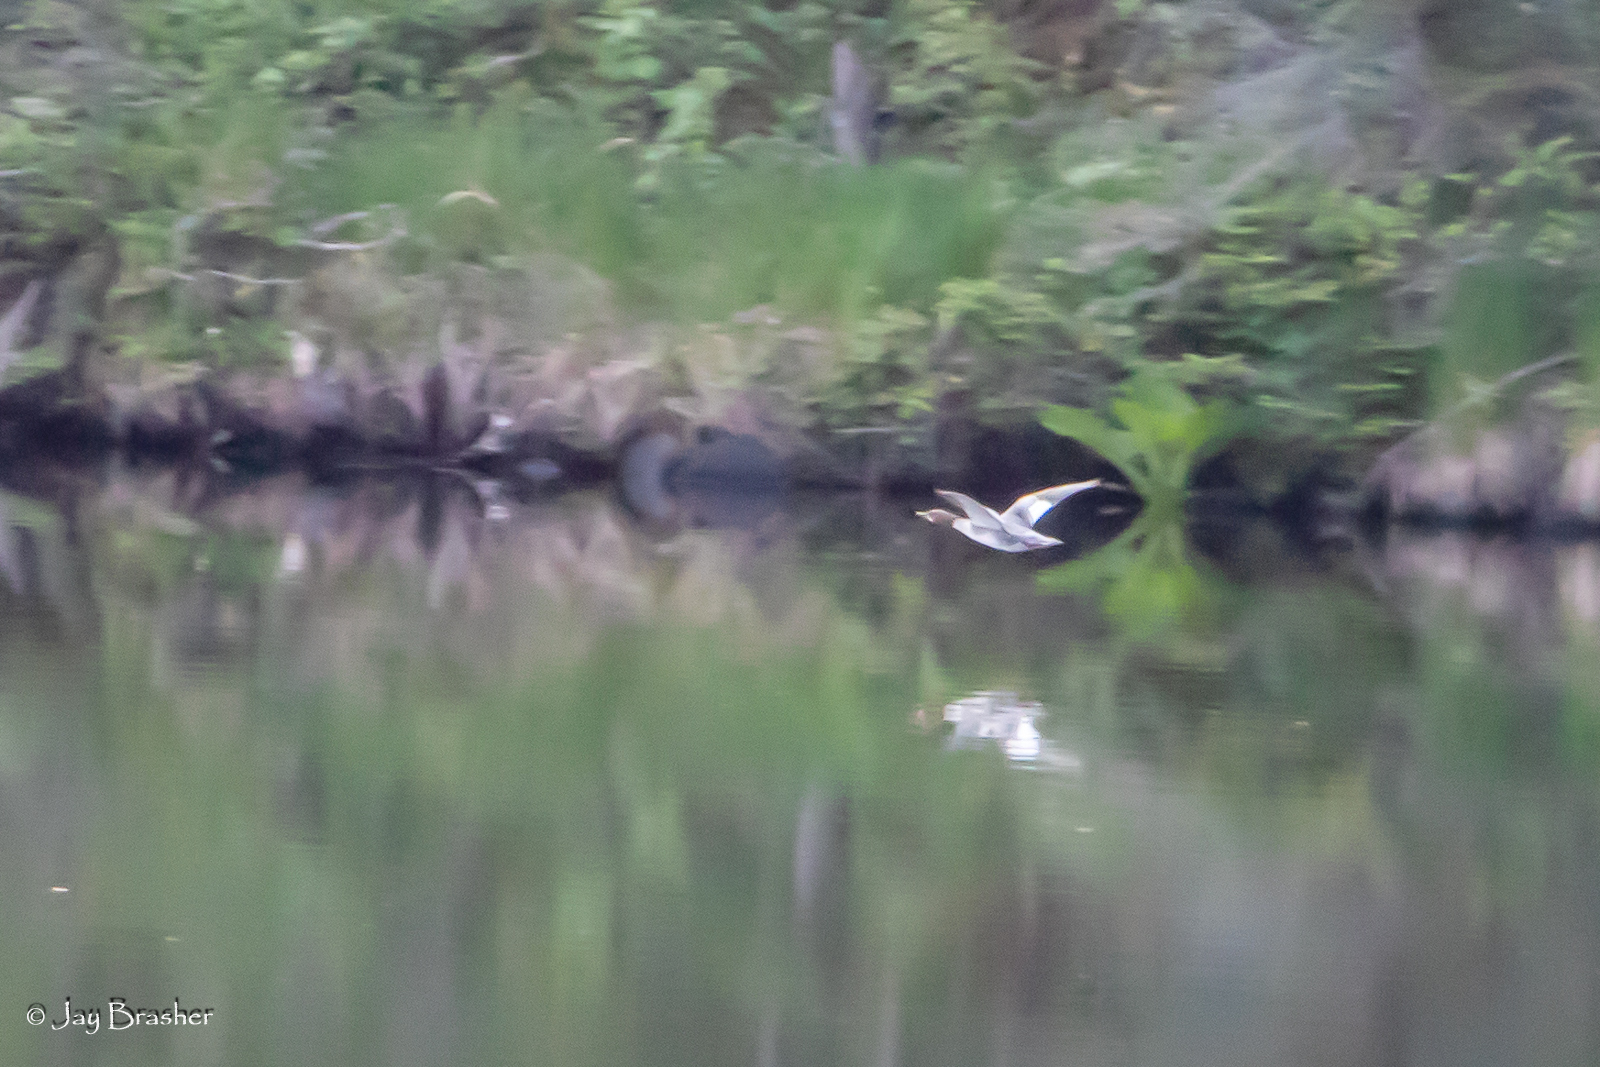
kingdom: Animalia
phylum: Chordata
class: Aves
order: Anseriformes
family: Anatidae
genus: Mergus
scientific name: Mergus merganser
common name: Common merganser
